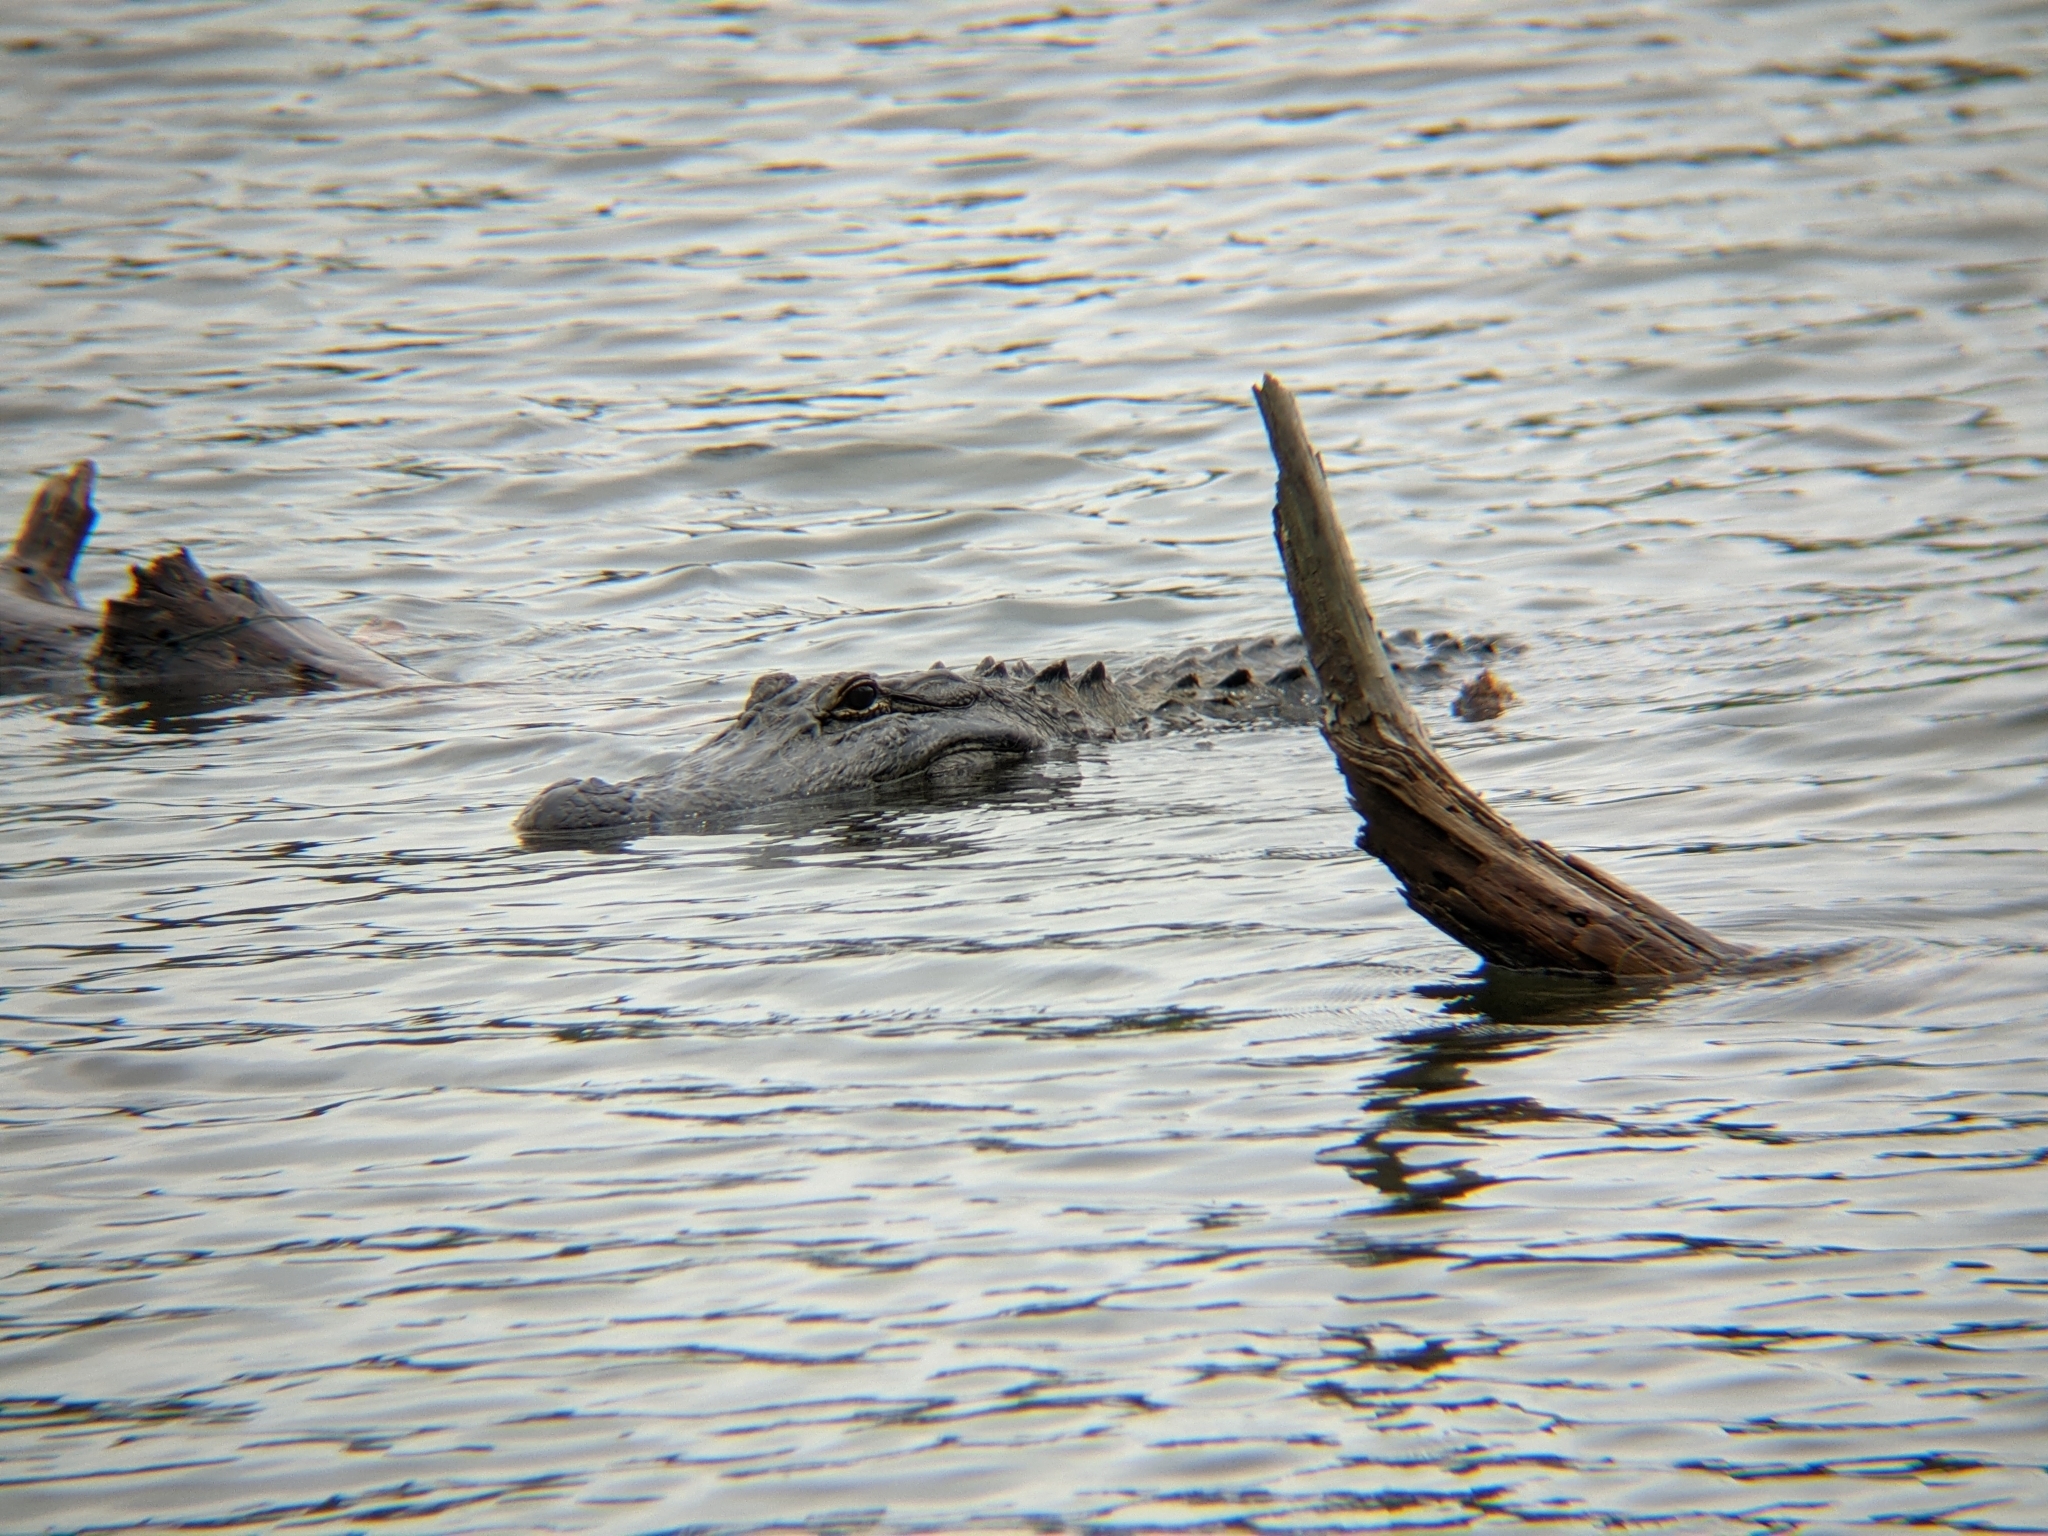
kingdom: Animalia
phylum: Chordata
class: Crocodylia
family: Alligatoridae
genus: Alligator
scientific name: Alligator mississippiensis
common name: American alligator
